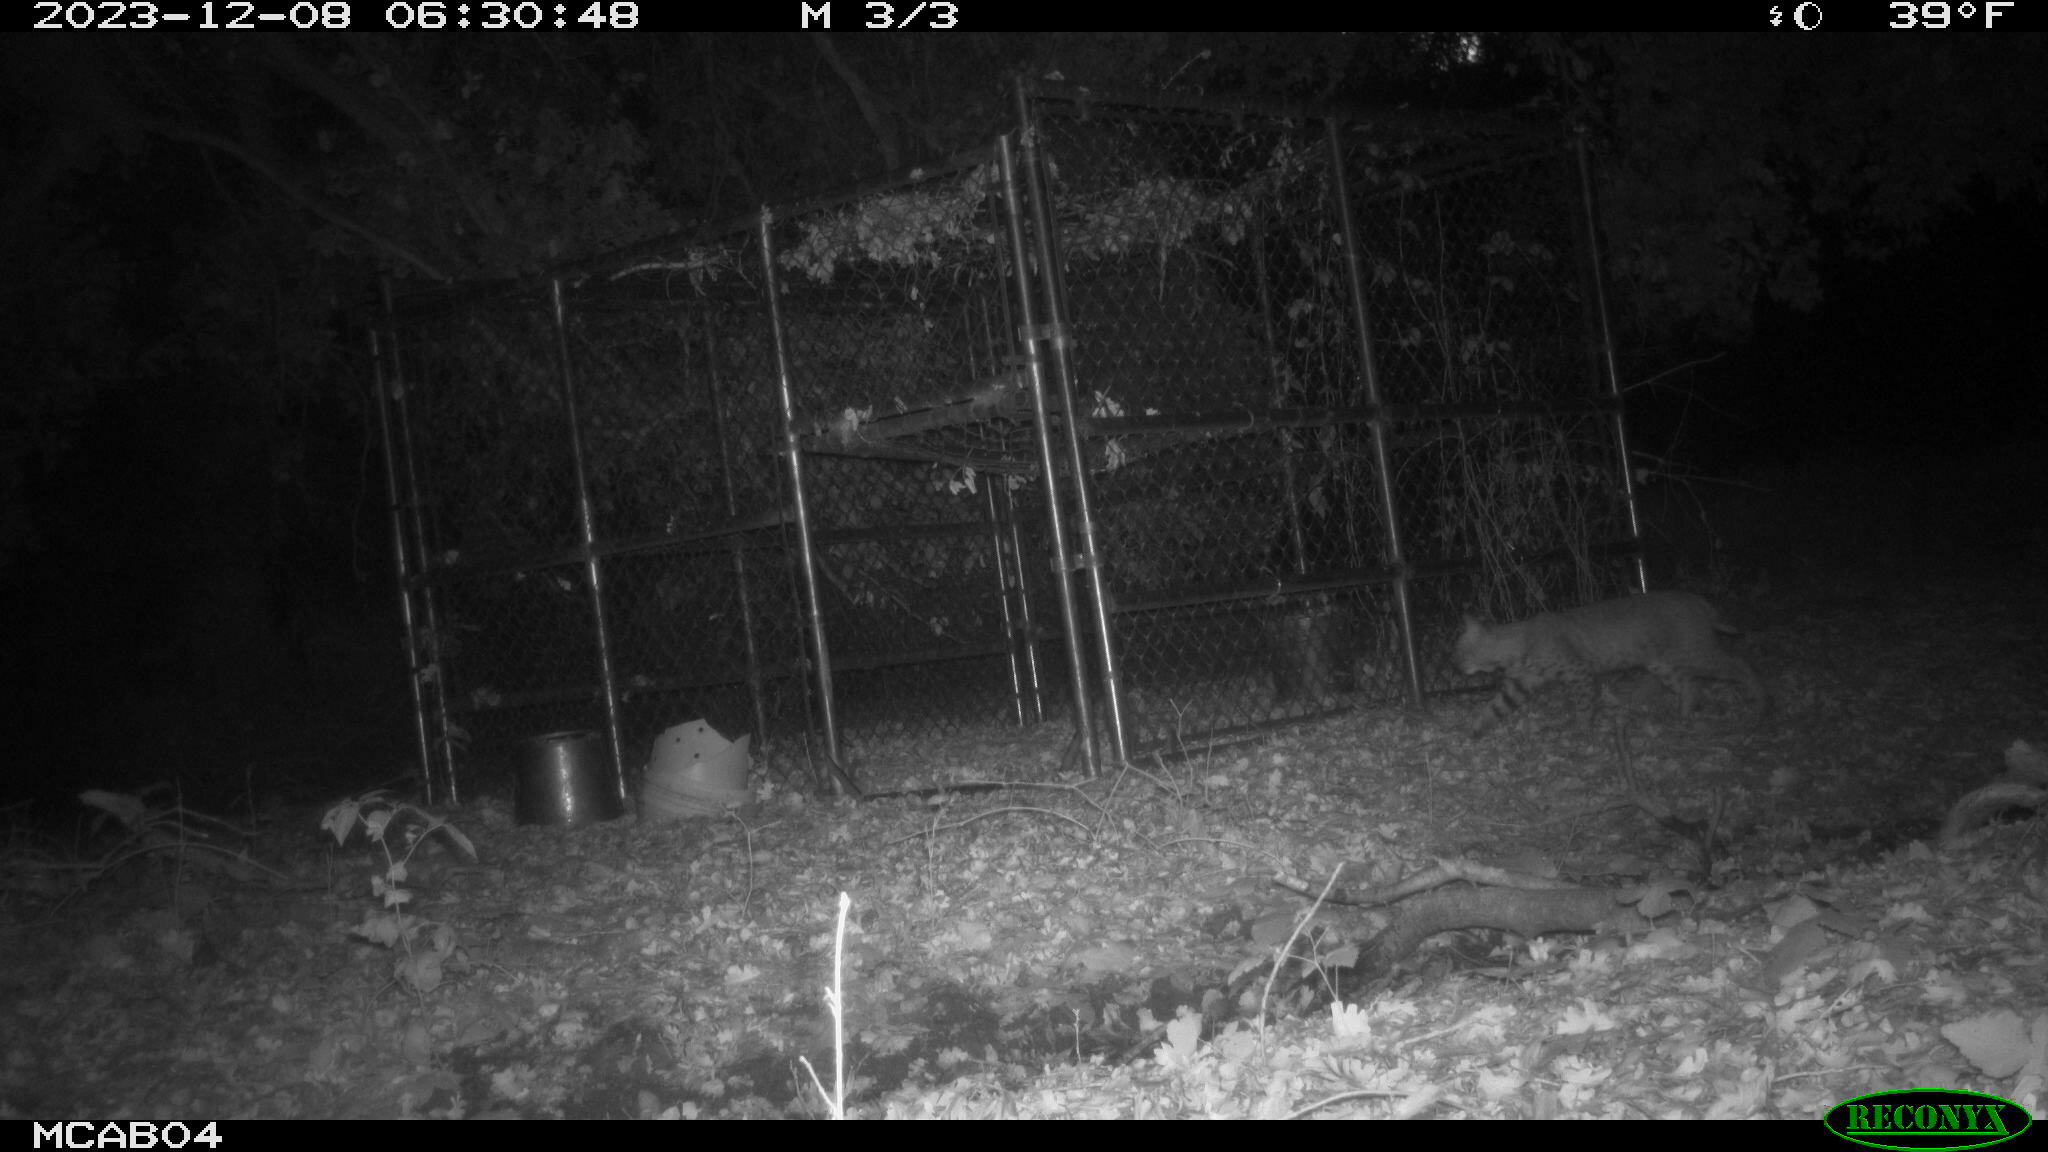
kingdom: Animalia
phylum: Chordata
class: Mammalia
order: Carnivora
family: Felidae
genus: Lynx
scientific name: Lynx rufus
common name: Bobcat
